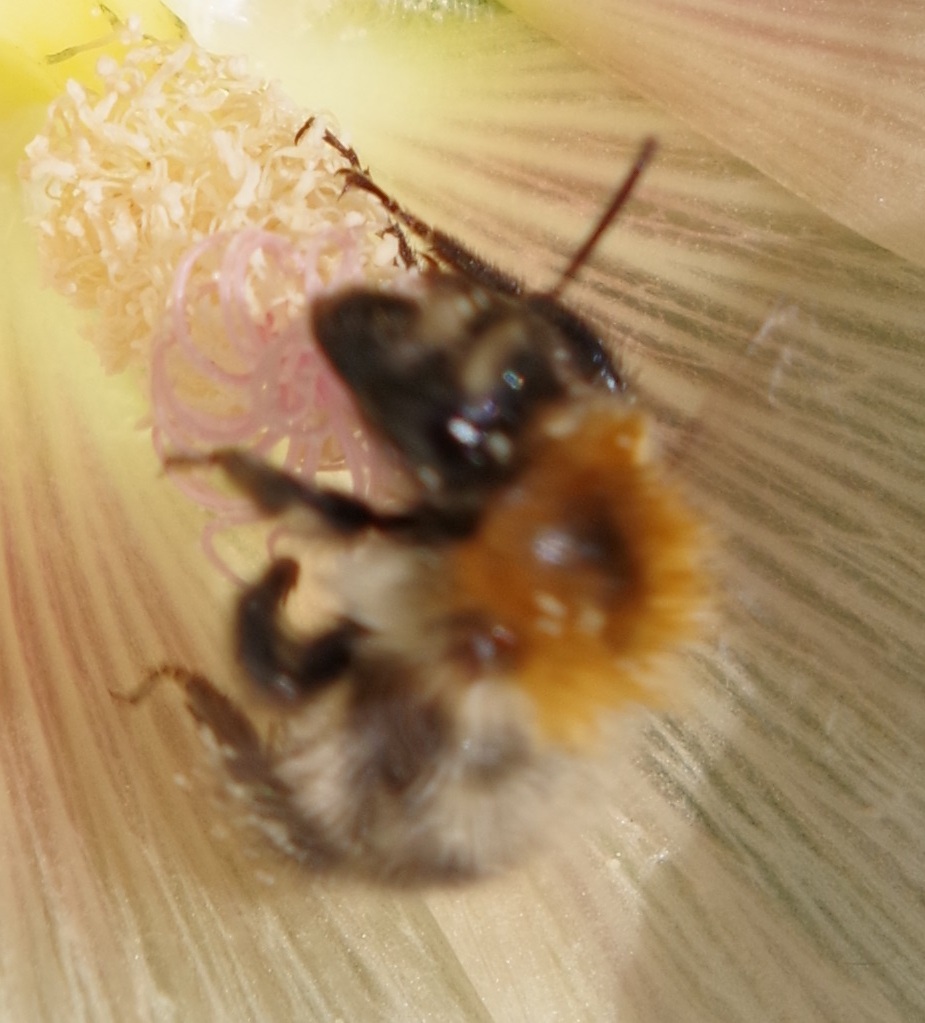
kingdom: Animalia
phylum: Arthropoda
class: Insecta
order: Hymenoptera
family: Apidae
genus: Bombus
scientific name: Bombus pascuorum
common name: Common carder bee
